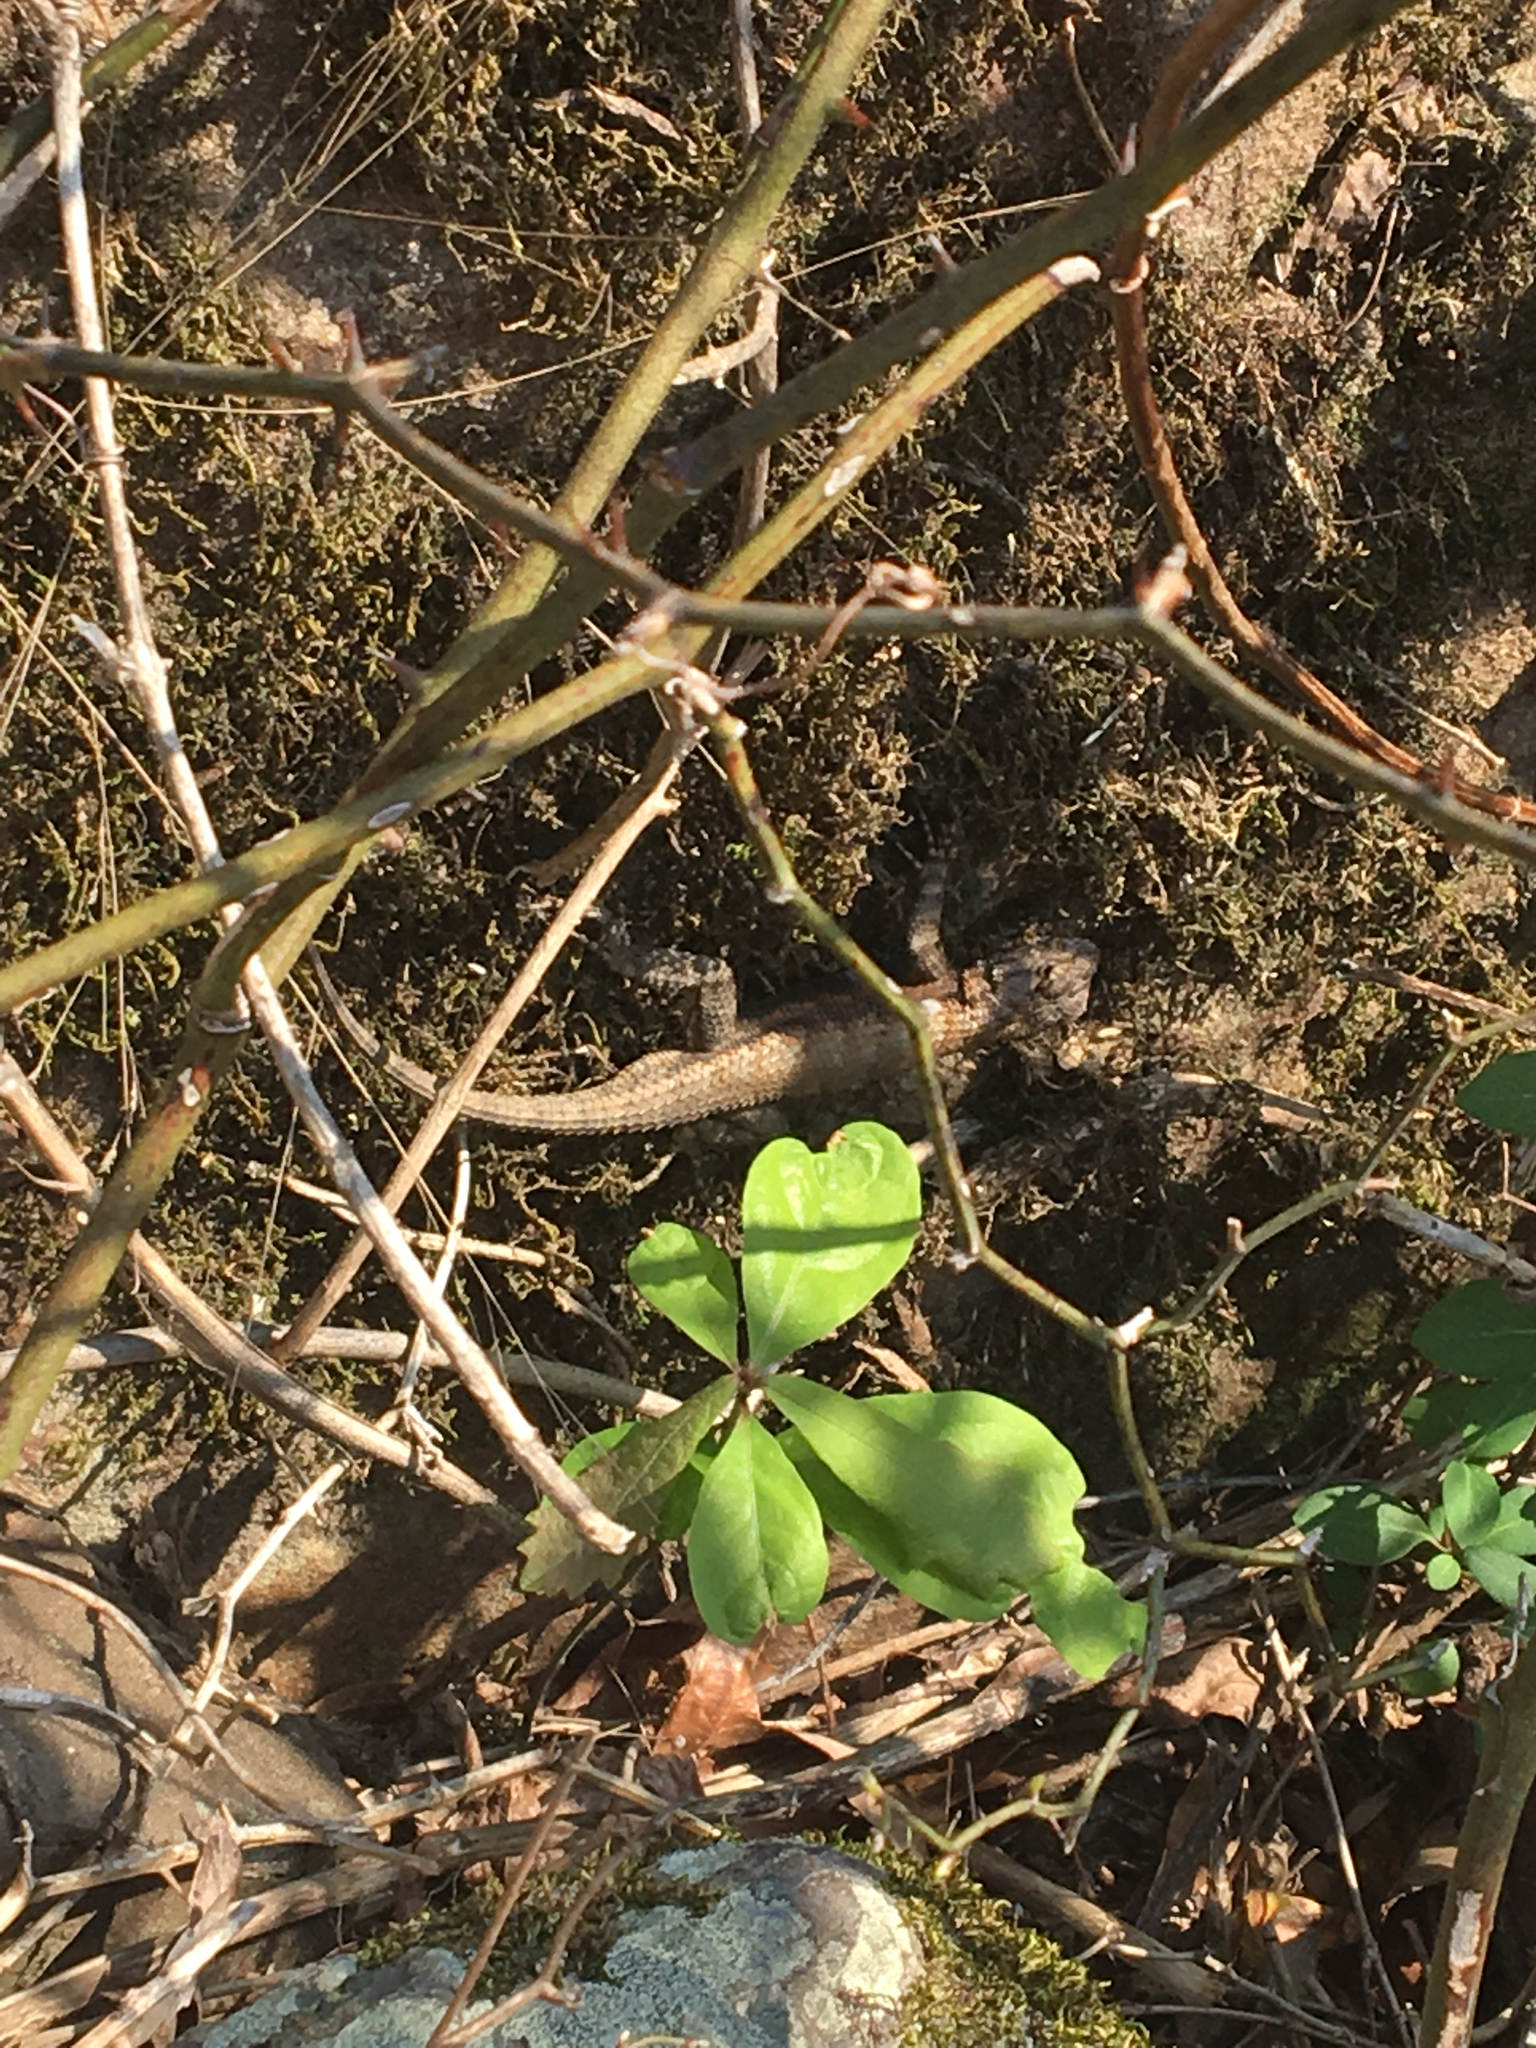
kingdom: Animalia
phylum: Chordata
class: Squamata
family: Phrynosomatidae
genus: Sceloporus
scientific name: Sceloporus undulatus
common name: Eastern fence lizard
